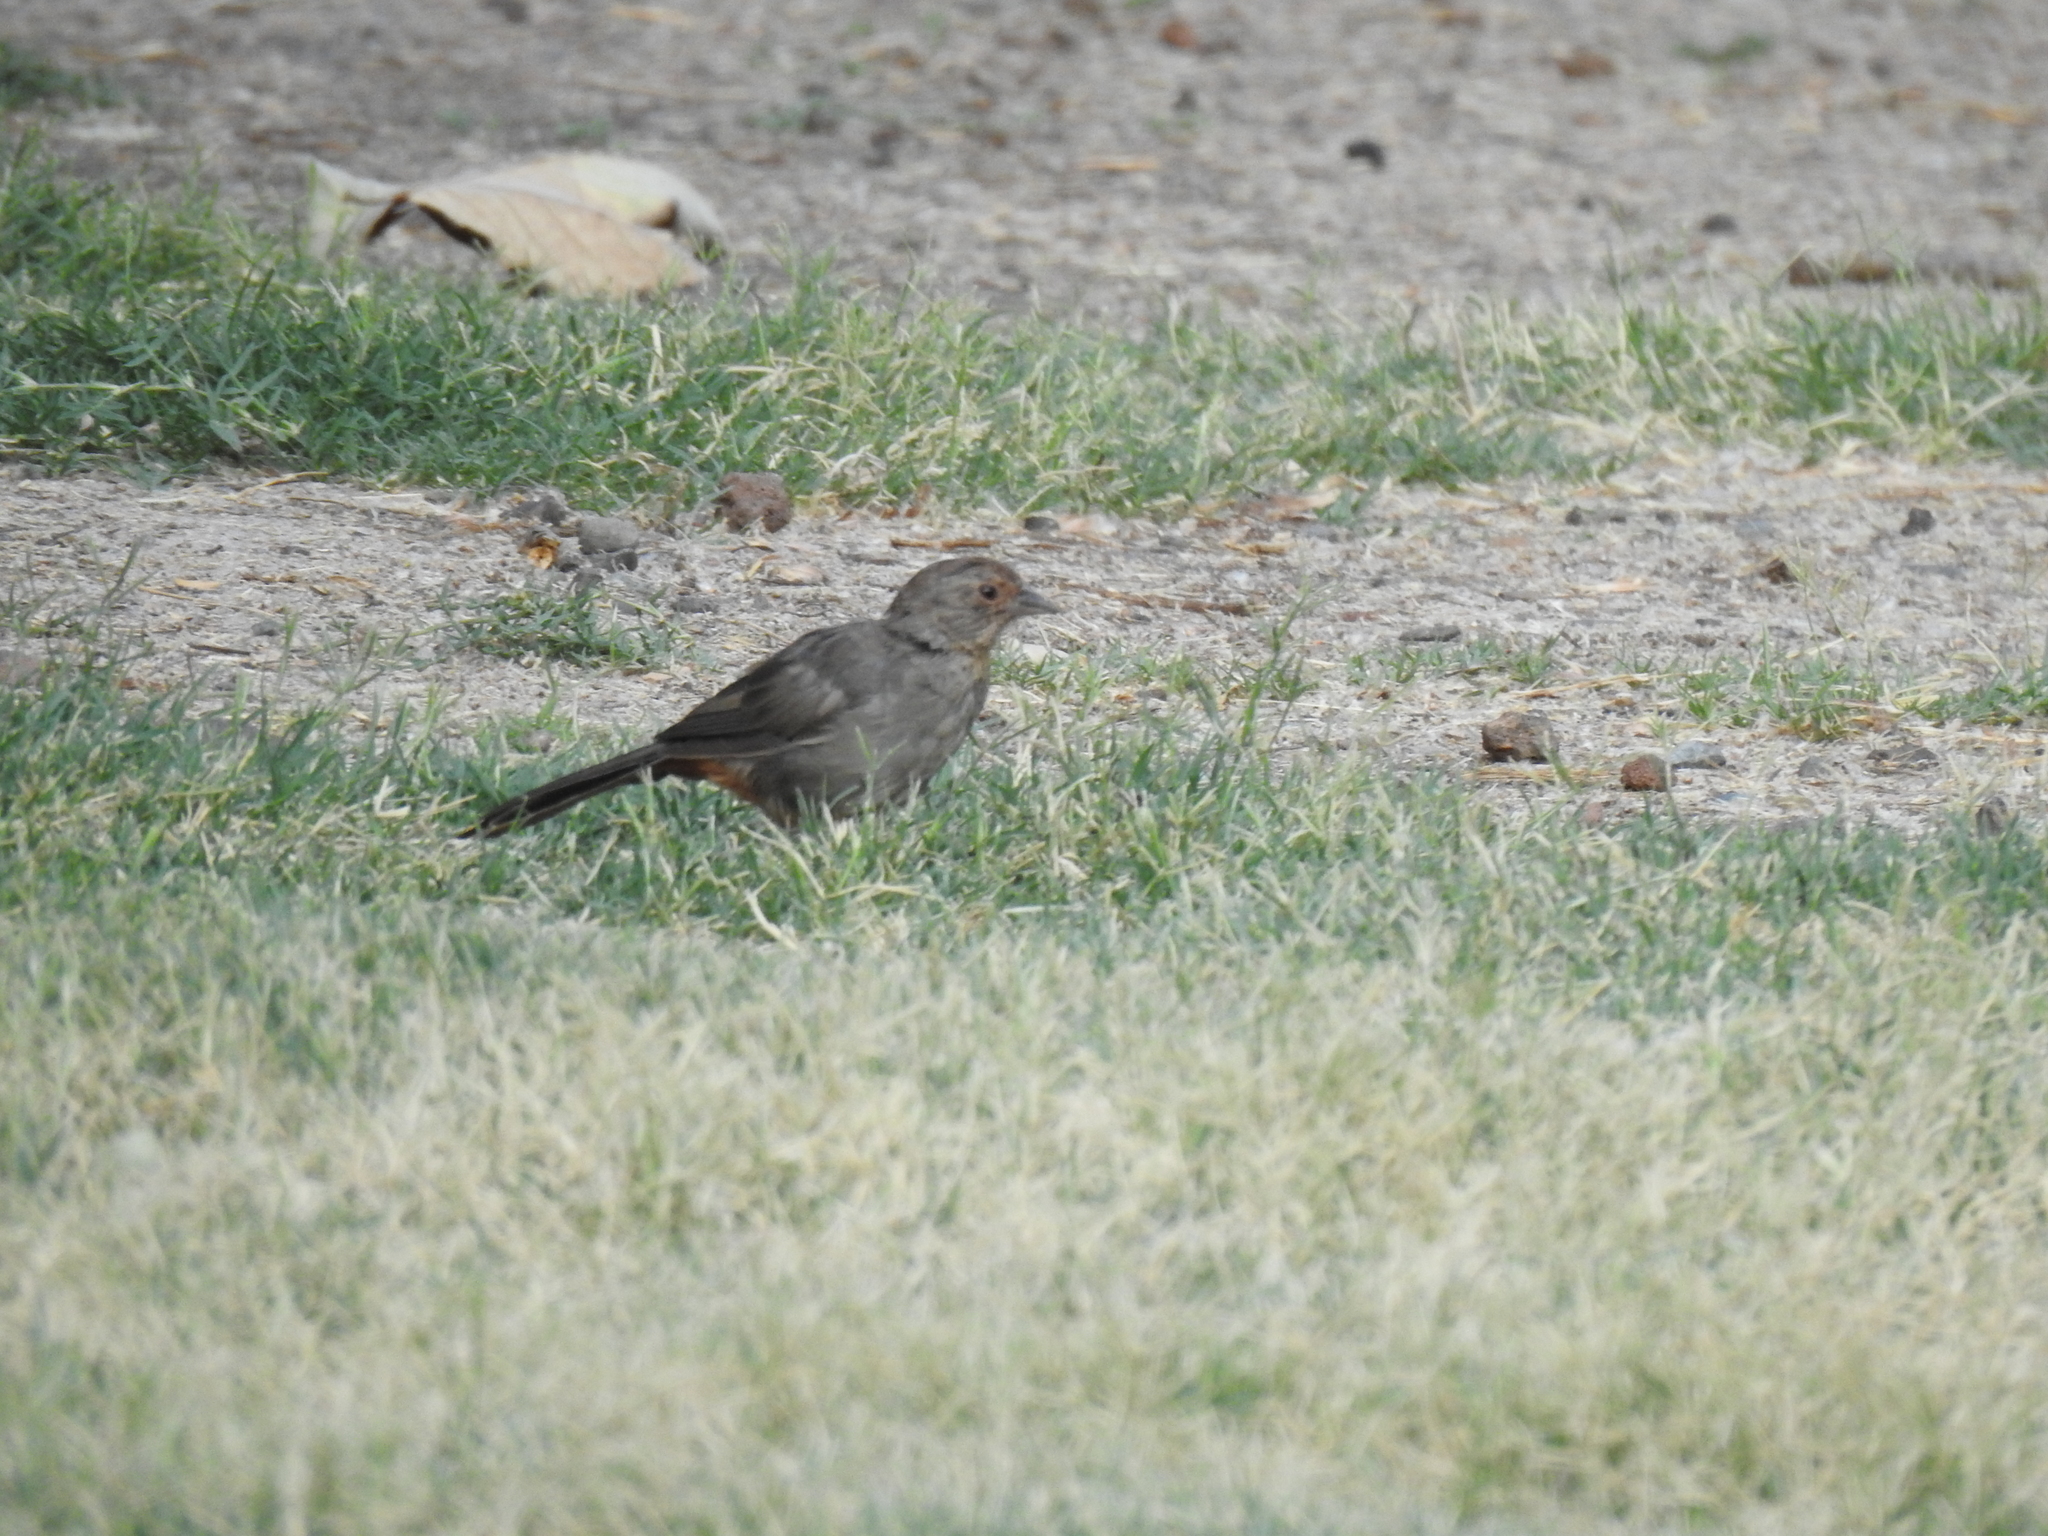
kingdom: Animalia
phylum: Chordata
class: Aves
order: Passeriformes
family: Passerellidae
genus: Melozone
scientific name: Melozone crissalis
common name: California towhee
